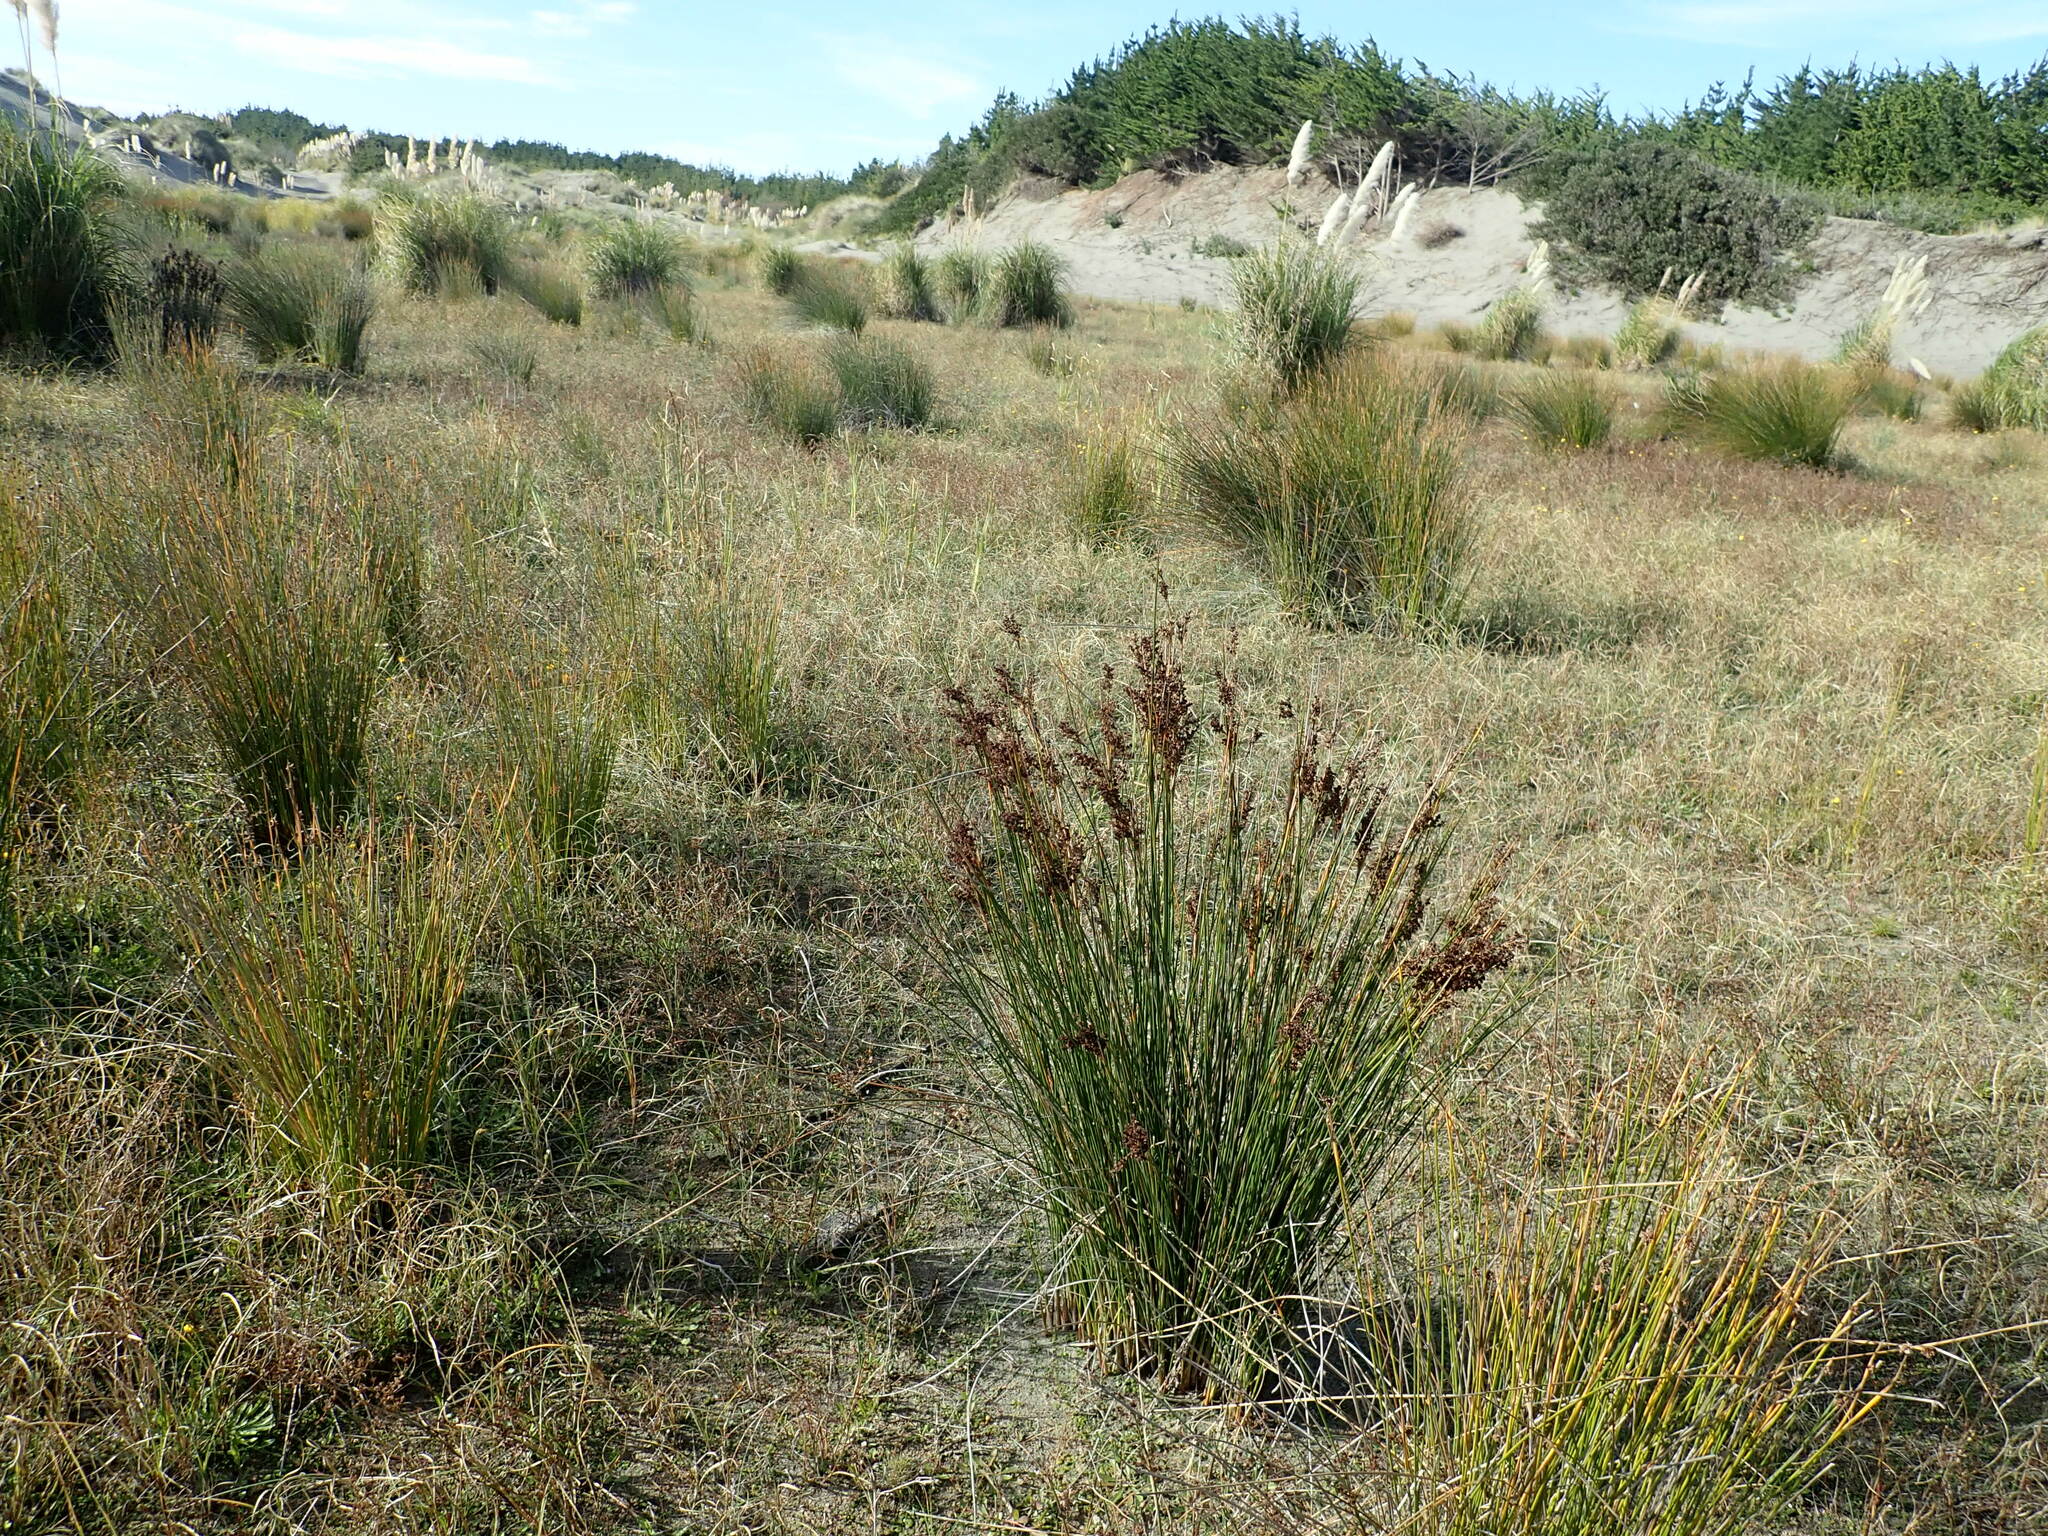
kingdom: Plantae
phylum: Tracheophyta
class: Liliopsida
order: Poales
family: Juncaceae
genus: Juncus
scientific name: Juncus kraussii
